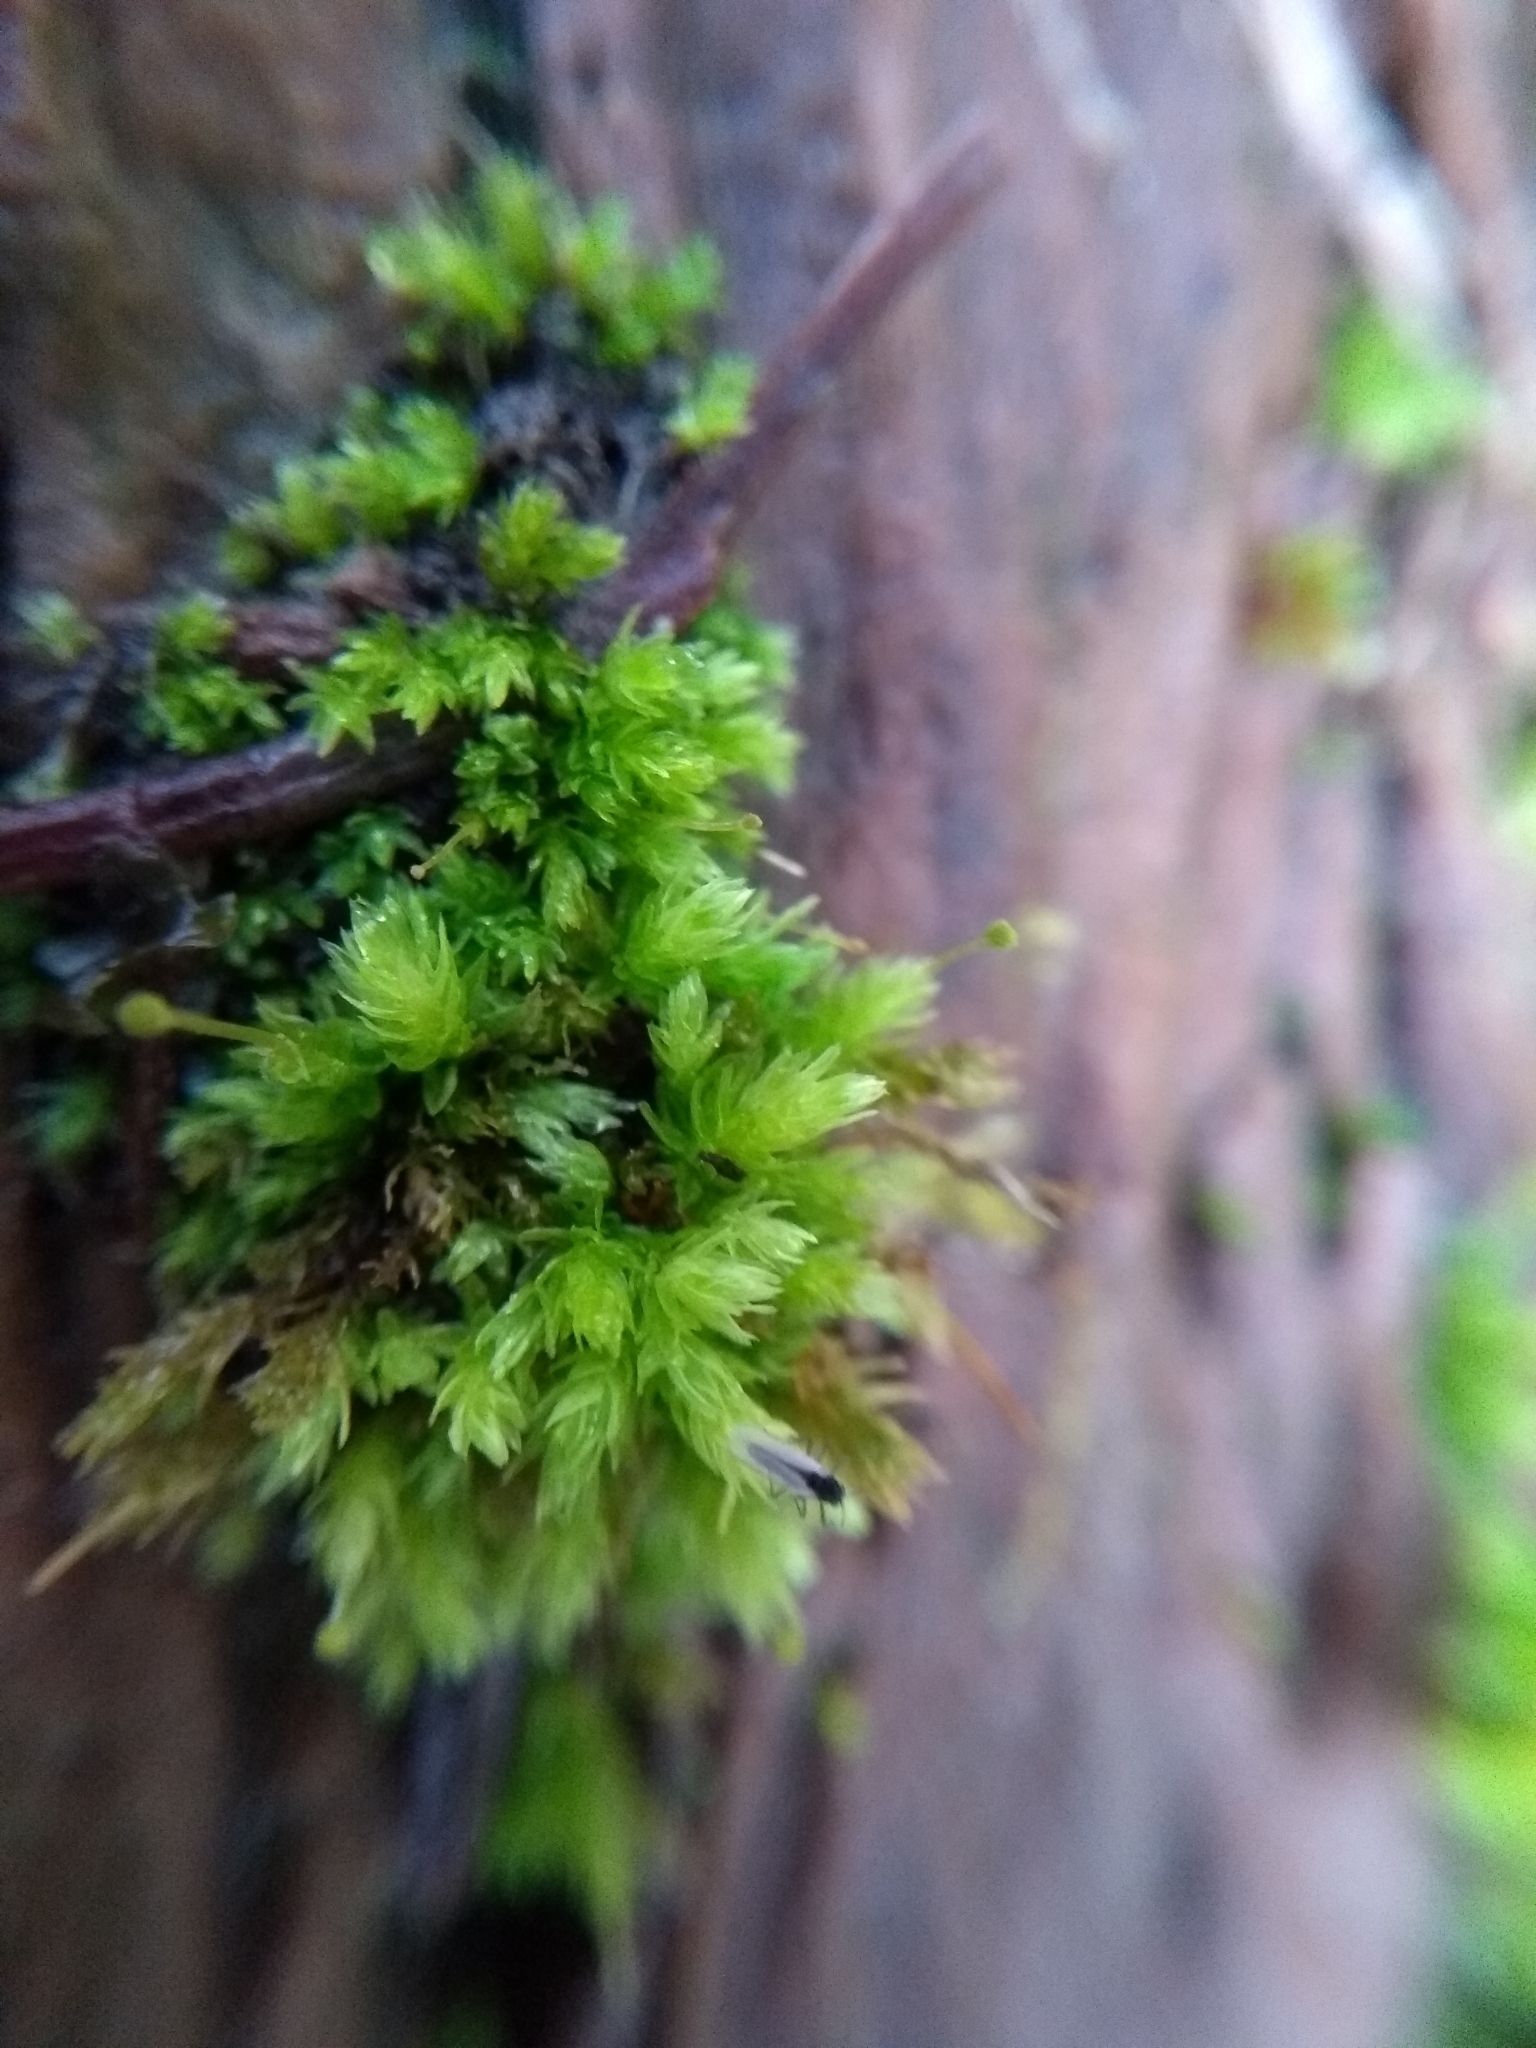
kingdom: Plantae
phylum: Bryophyta
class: Bryopsida
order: Aulacomniales
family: Aulacomniaceae
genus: Aulacomnium
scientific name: Aulacomnium androgynum
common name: Little groove moss
